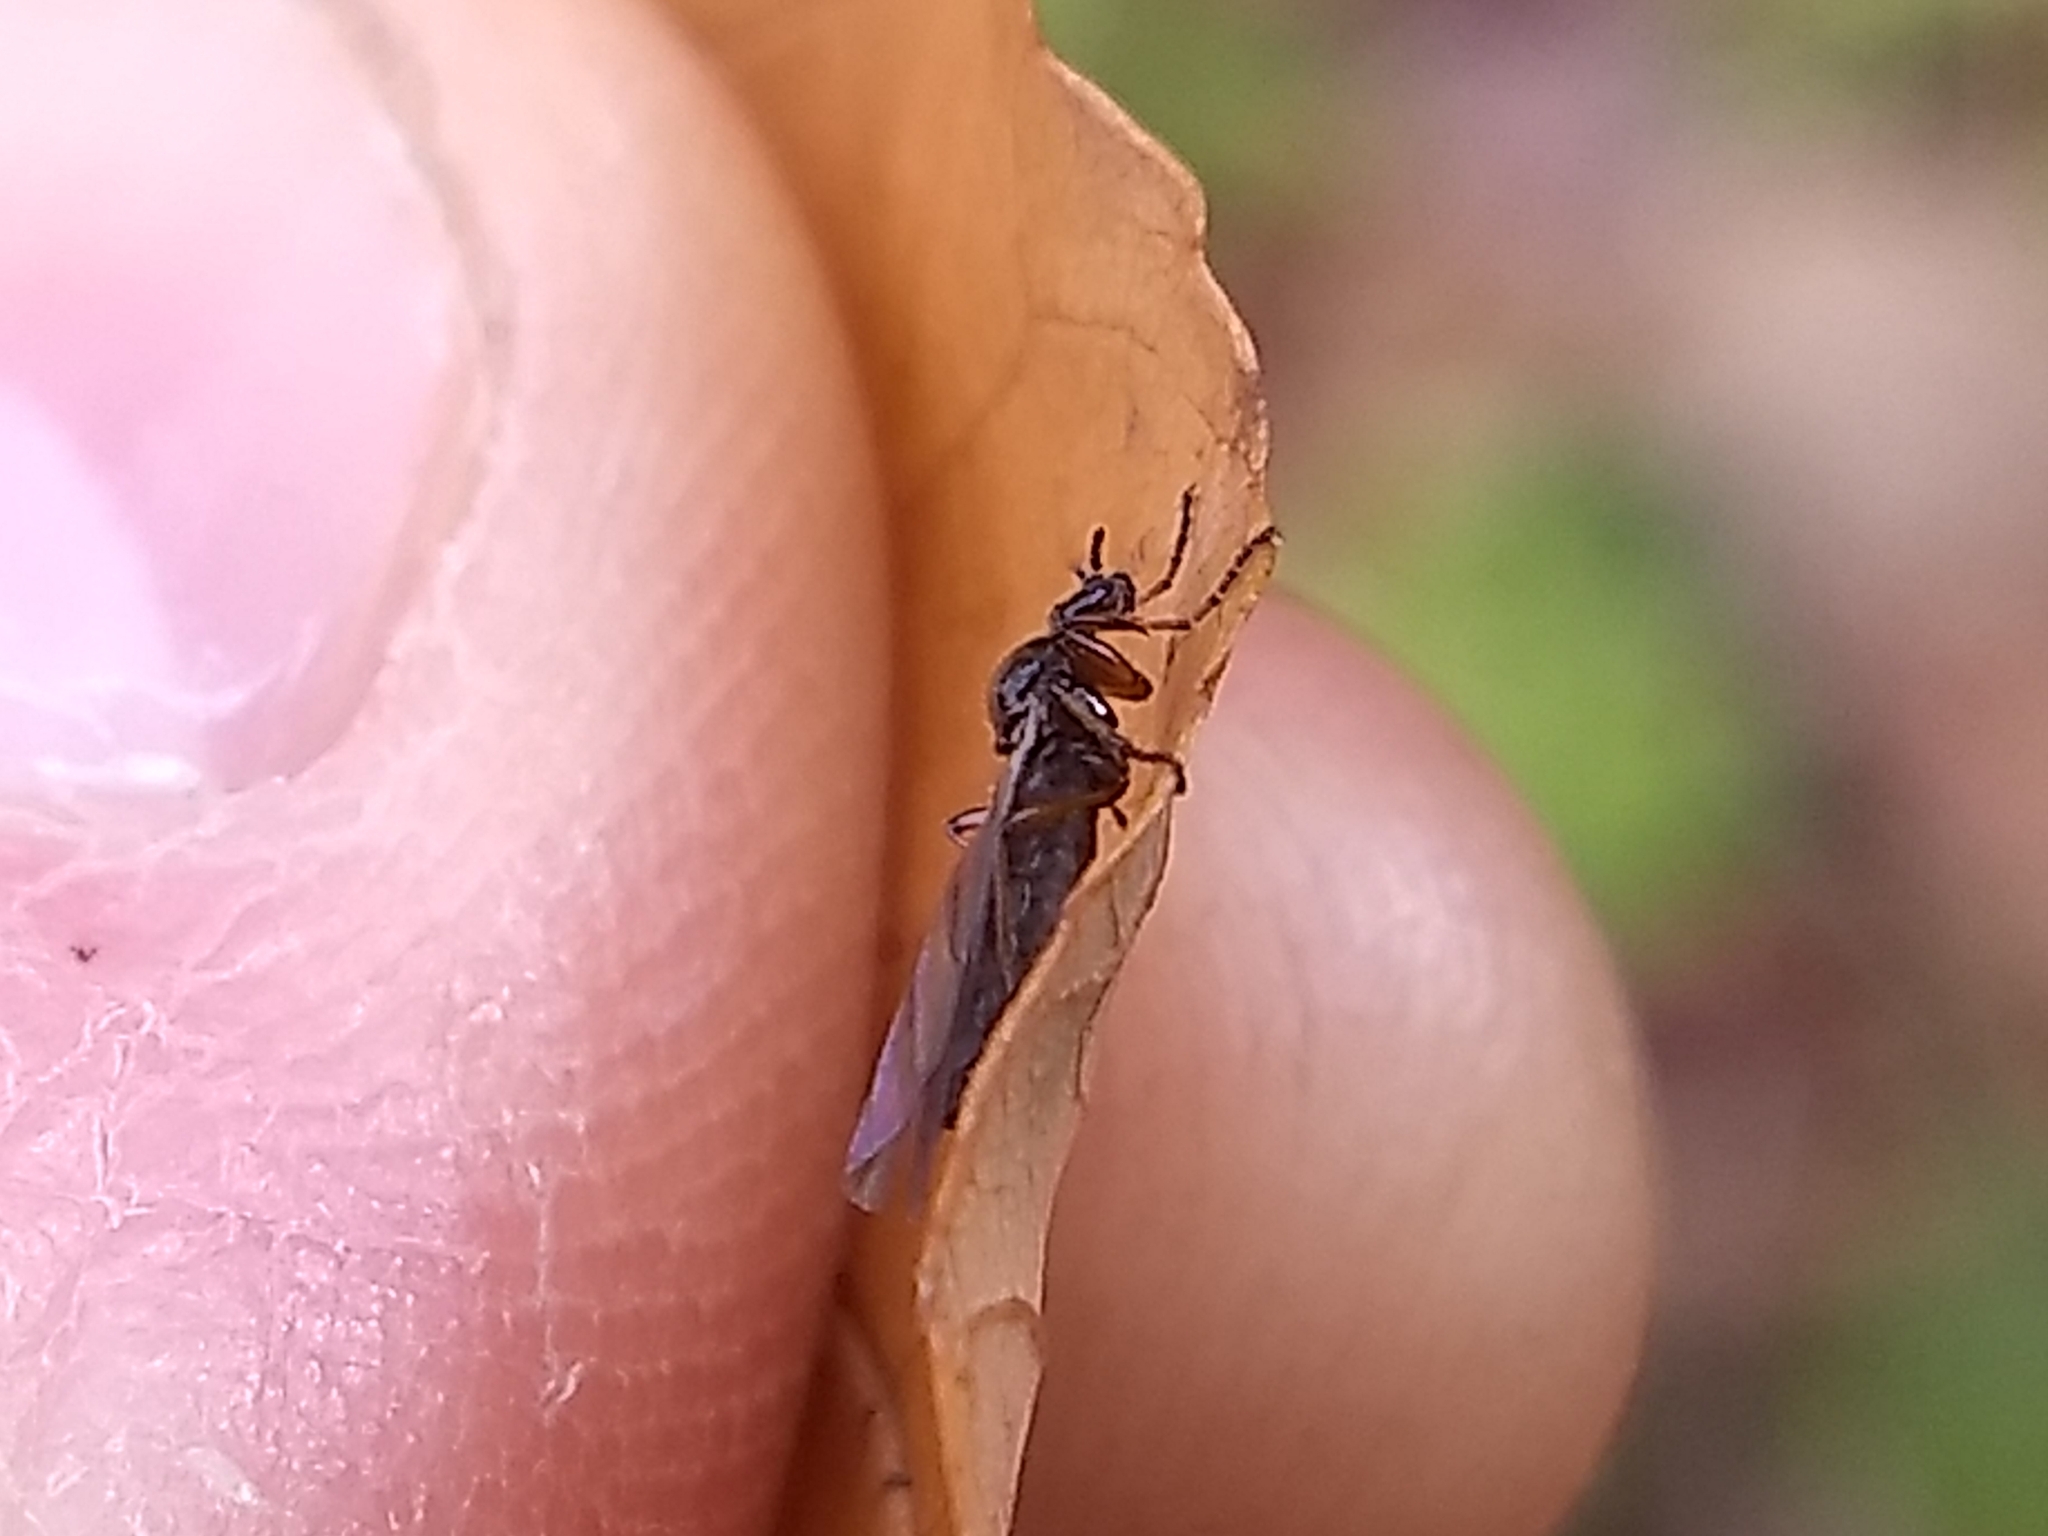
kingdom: Animalia
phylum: Arthropoda
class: Insecta
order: Diptera
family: Bibionidae
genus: Bibio
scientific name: Bibio slossonae
